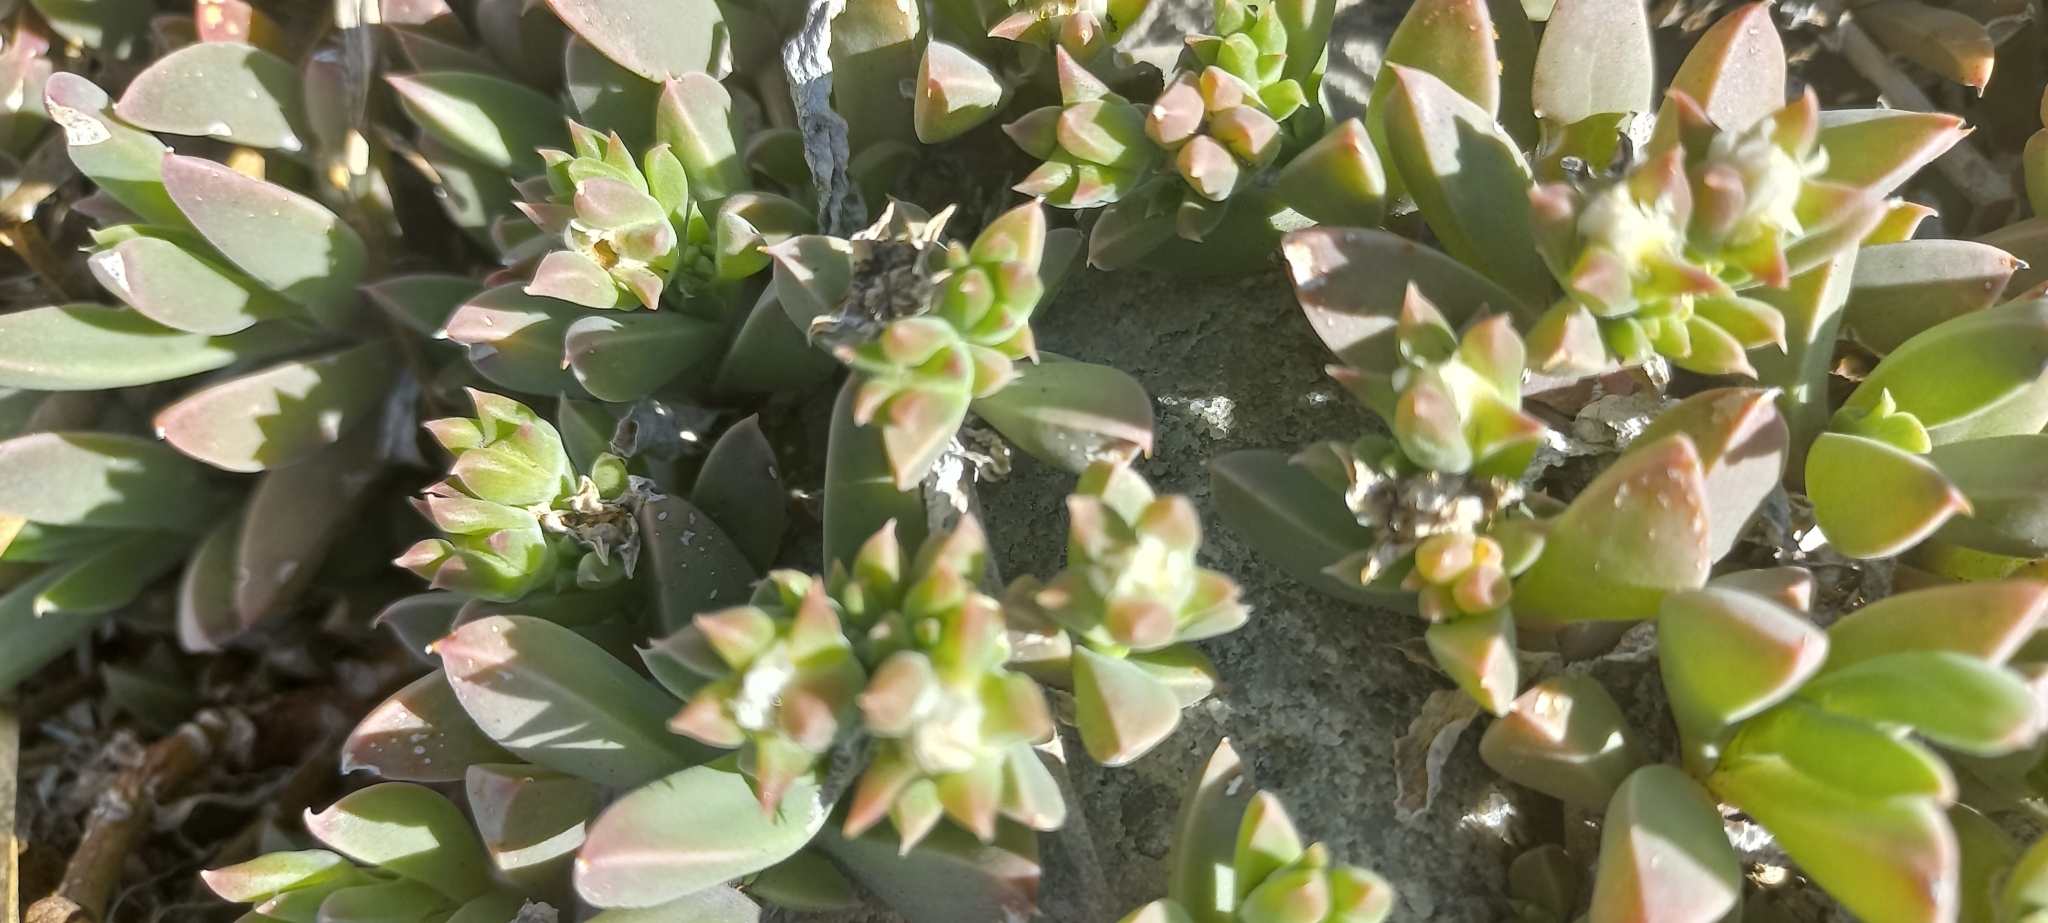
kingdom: Plantae
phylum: Tracheophyta
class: Magnoliopsida
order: Caryophyllales
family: Aizoaceae
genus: Delosperma
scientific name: Delosperma guthriei
